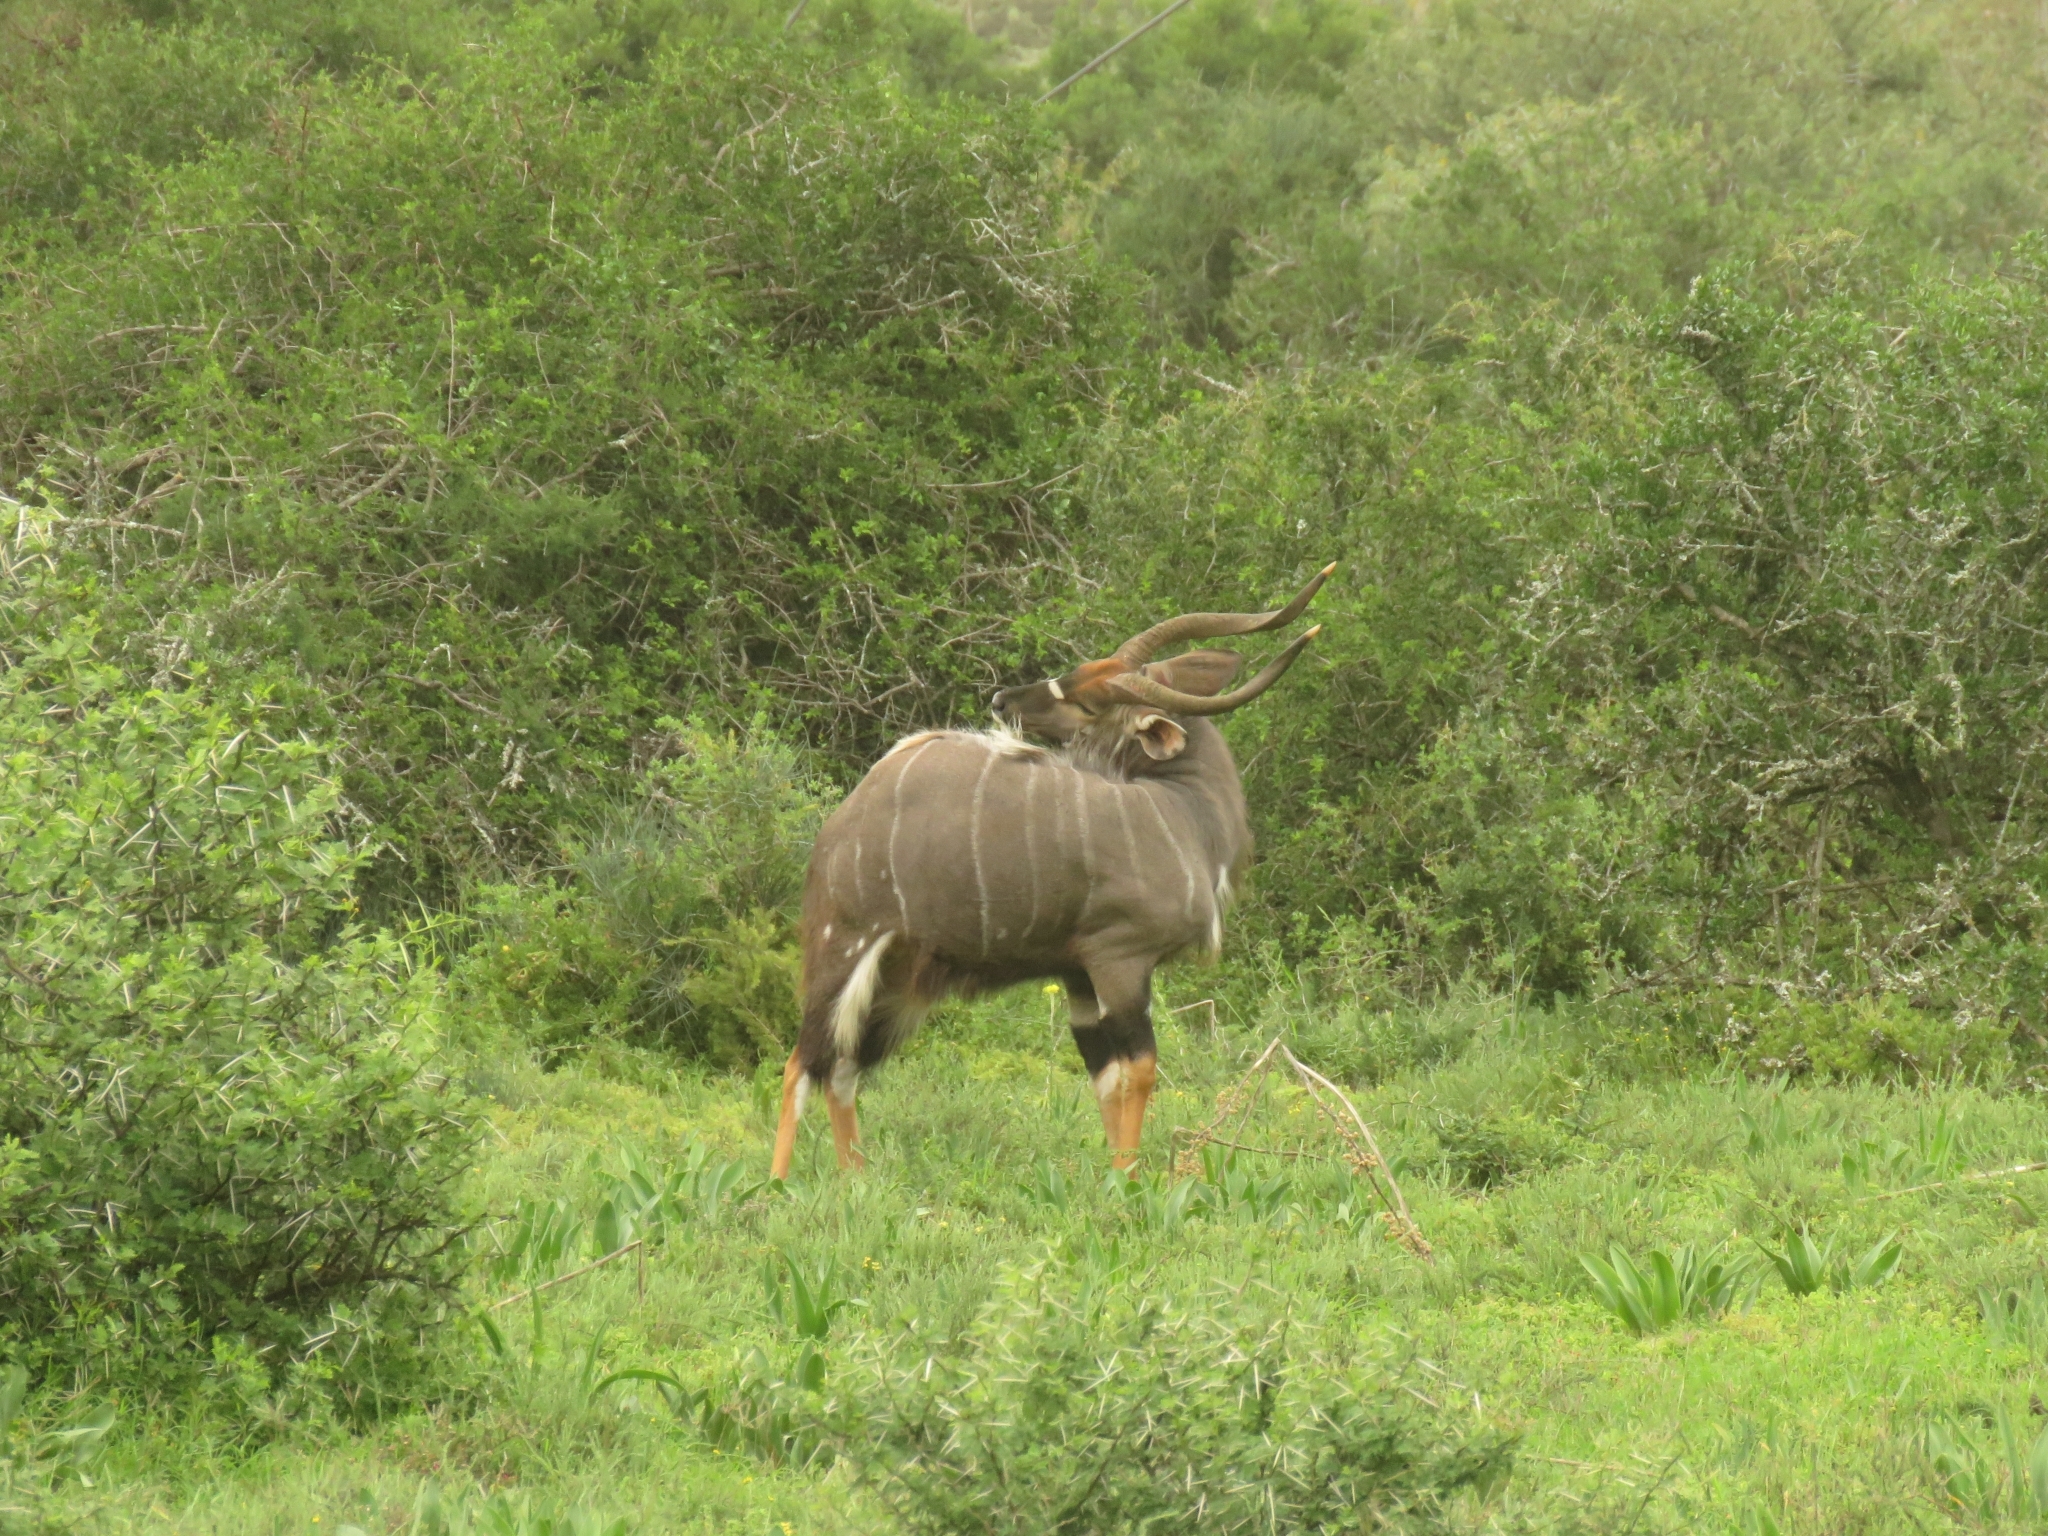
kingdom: Animalia
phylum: Chordata
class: Mammalia
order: Artiodactyla
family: Bovidae
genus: Tragelaphus
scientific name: Tragelaphus angasii
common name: Nyala
